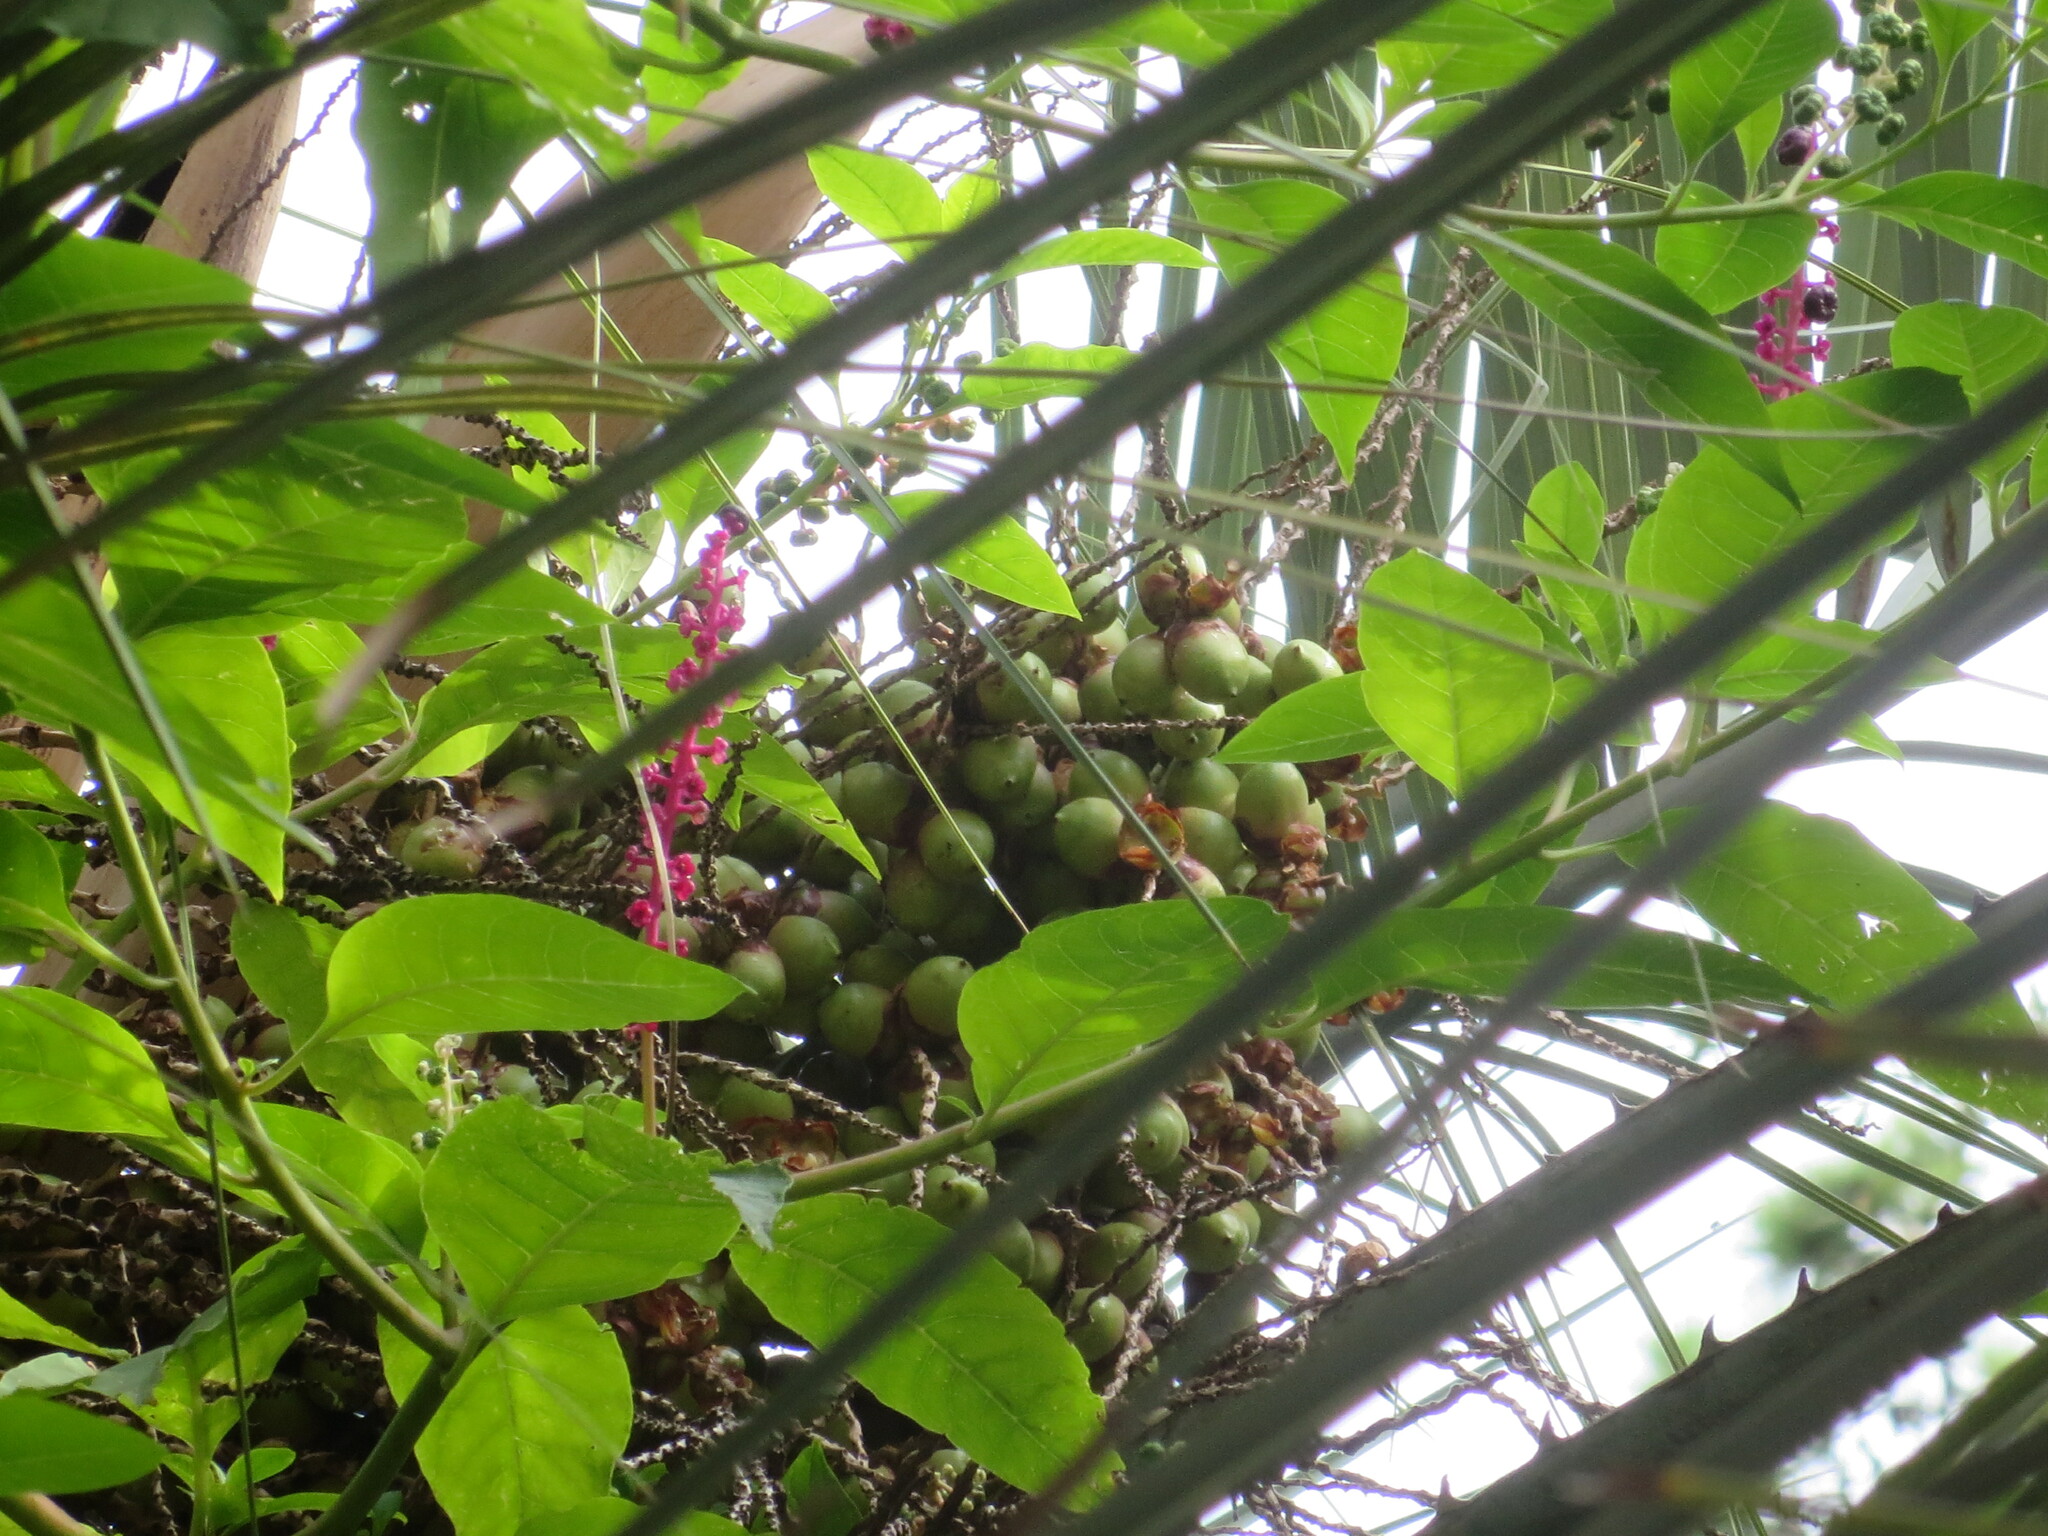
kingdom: Plantae
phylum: Tracheophyta
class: Magnoliopsida
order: Caryophyllales
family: Phytolaccaceae
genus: Phytolacca
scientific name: Phytolacca americana
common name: American pokeweed
